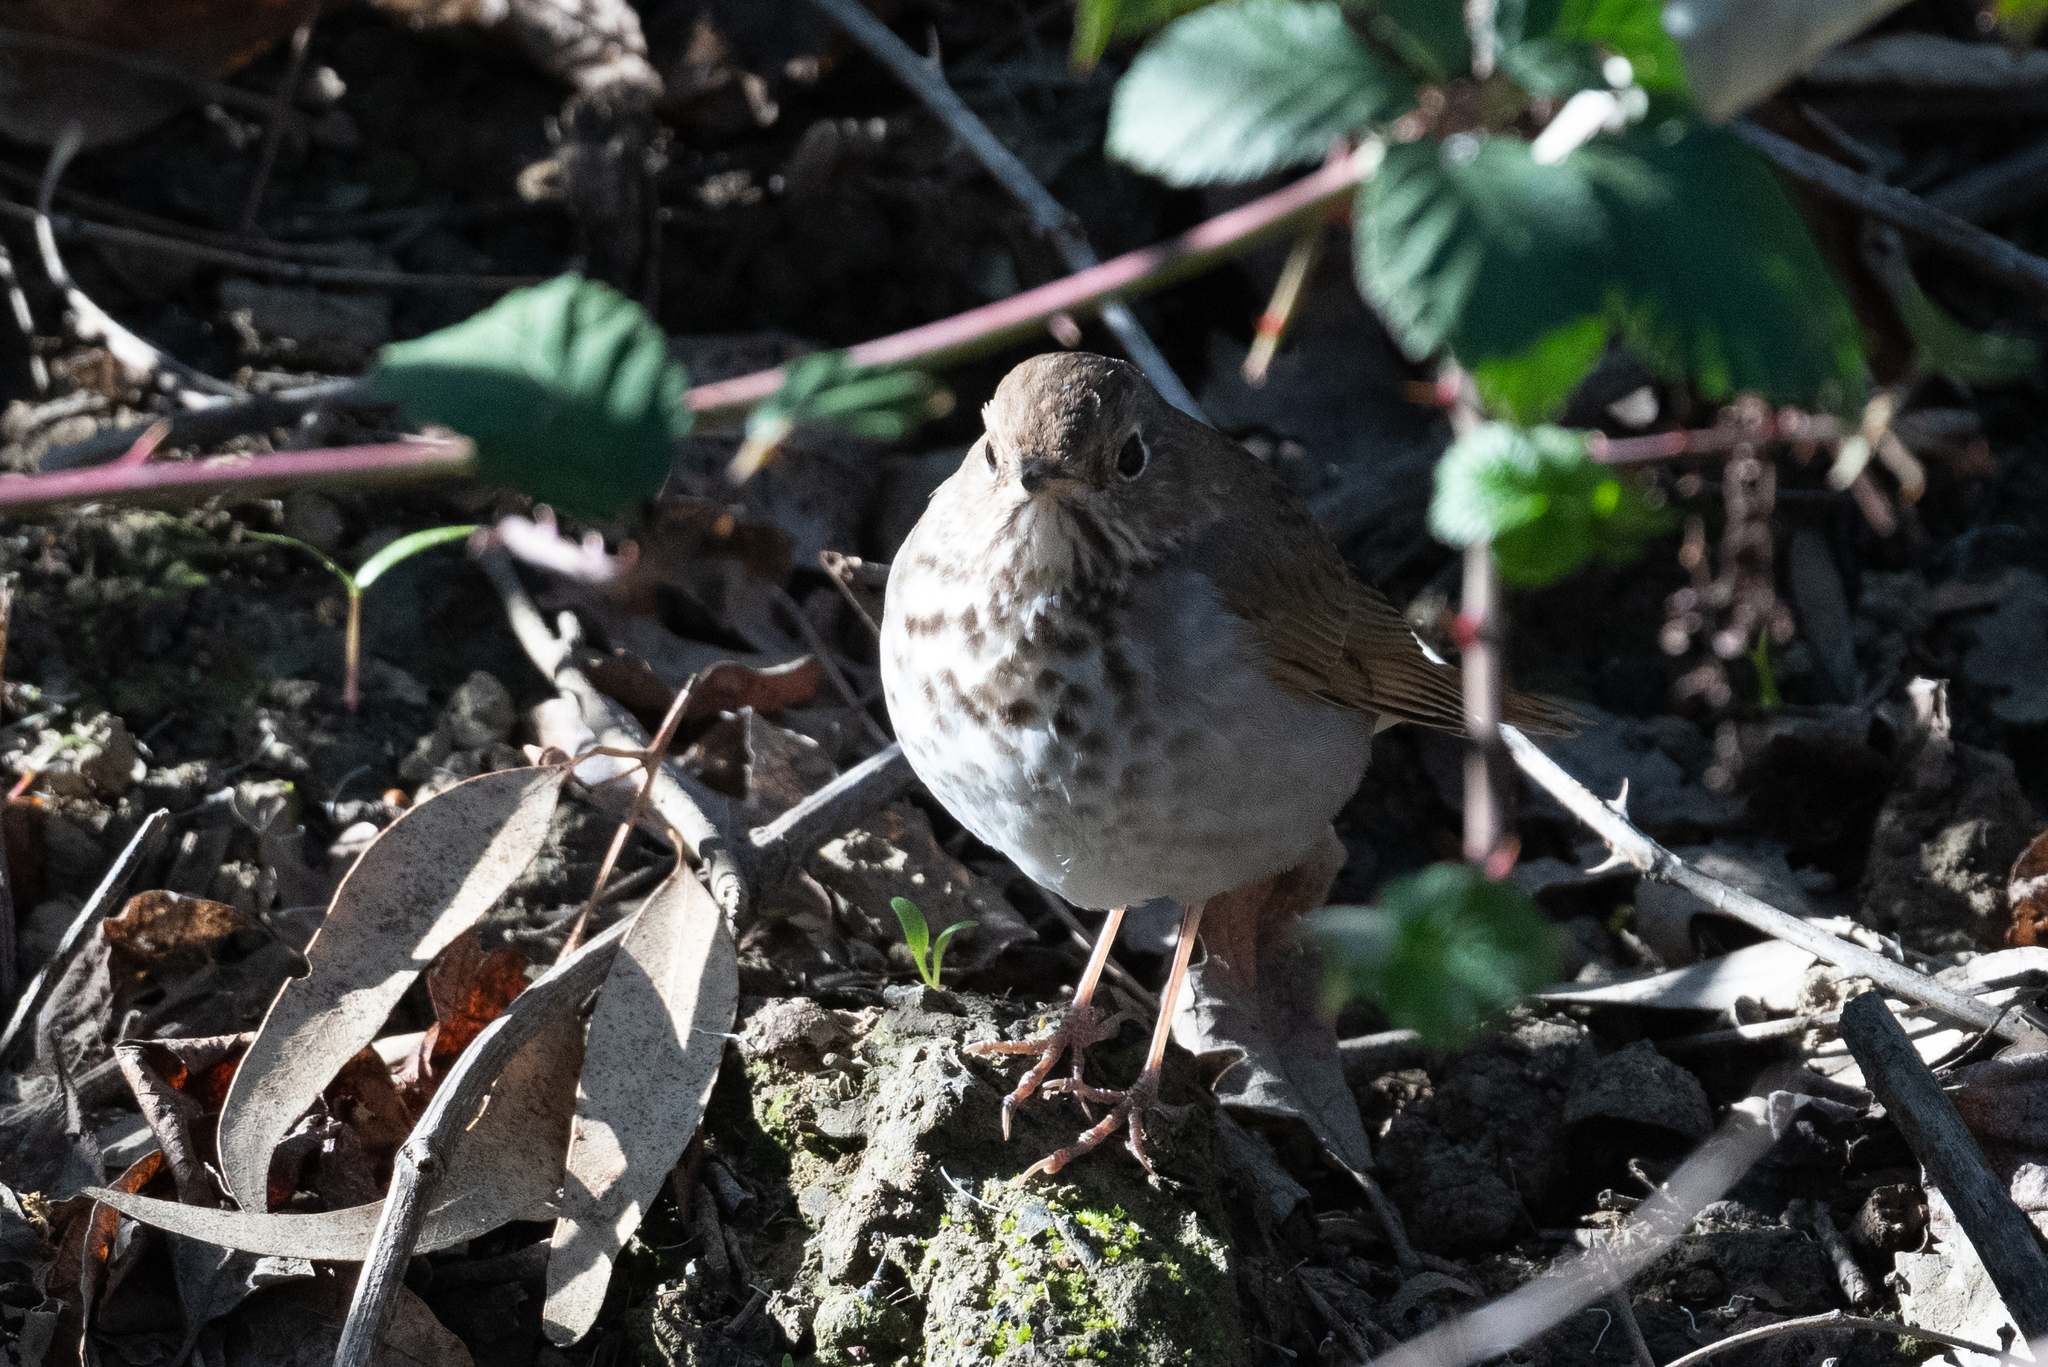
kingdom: Animalia
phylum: Chordata
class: Aves
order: Passeriformes
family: Turdidae
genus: Catharus
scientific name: Catharus guttatus
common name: Hermit thrush
